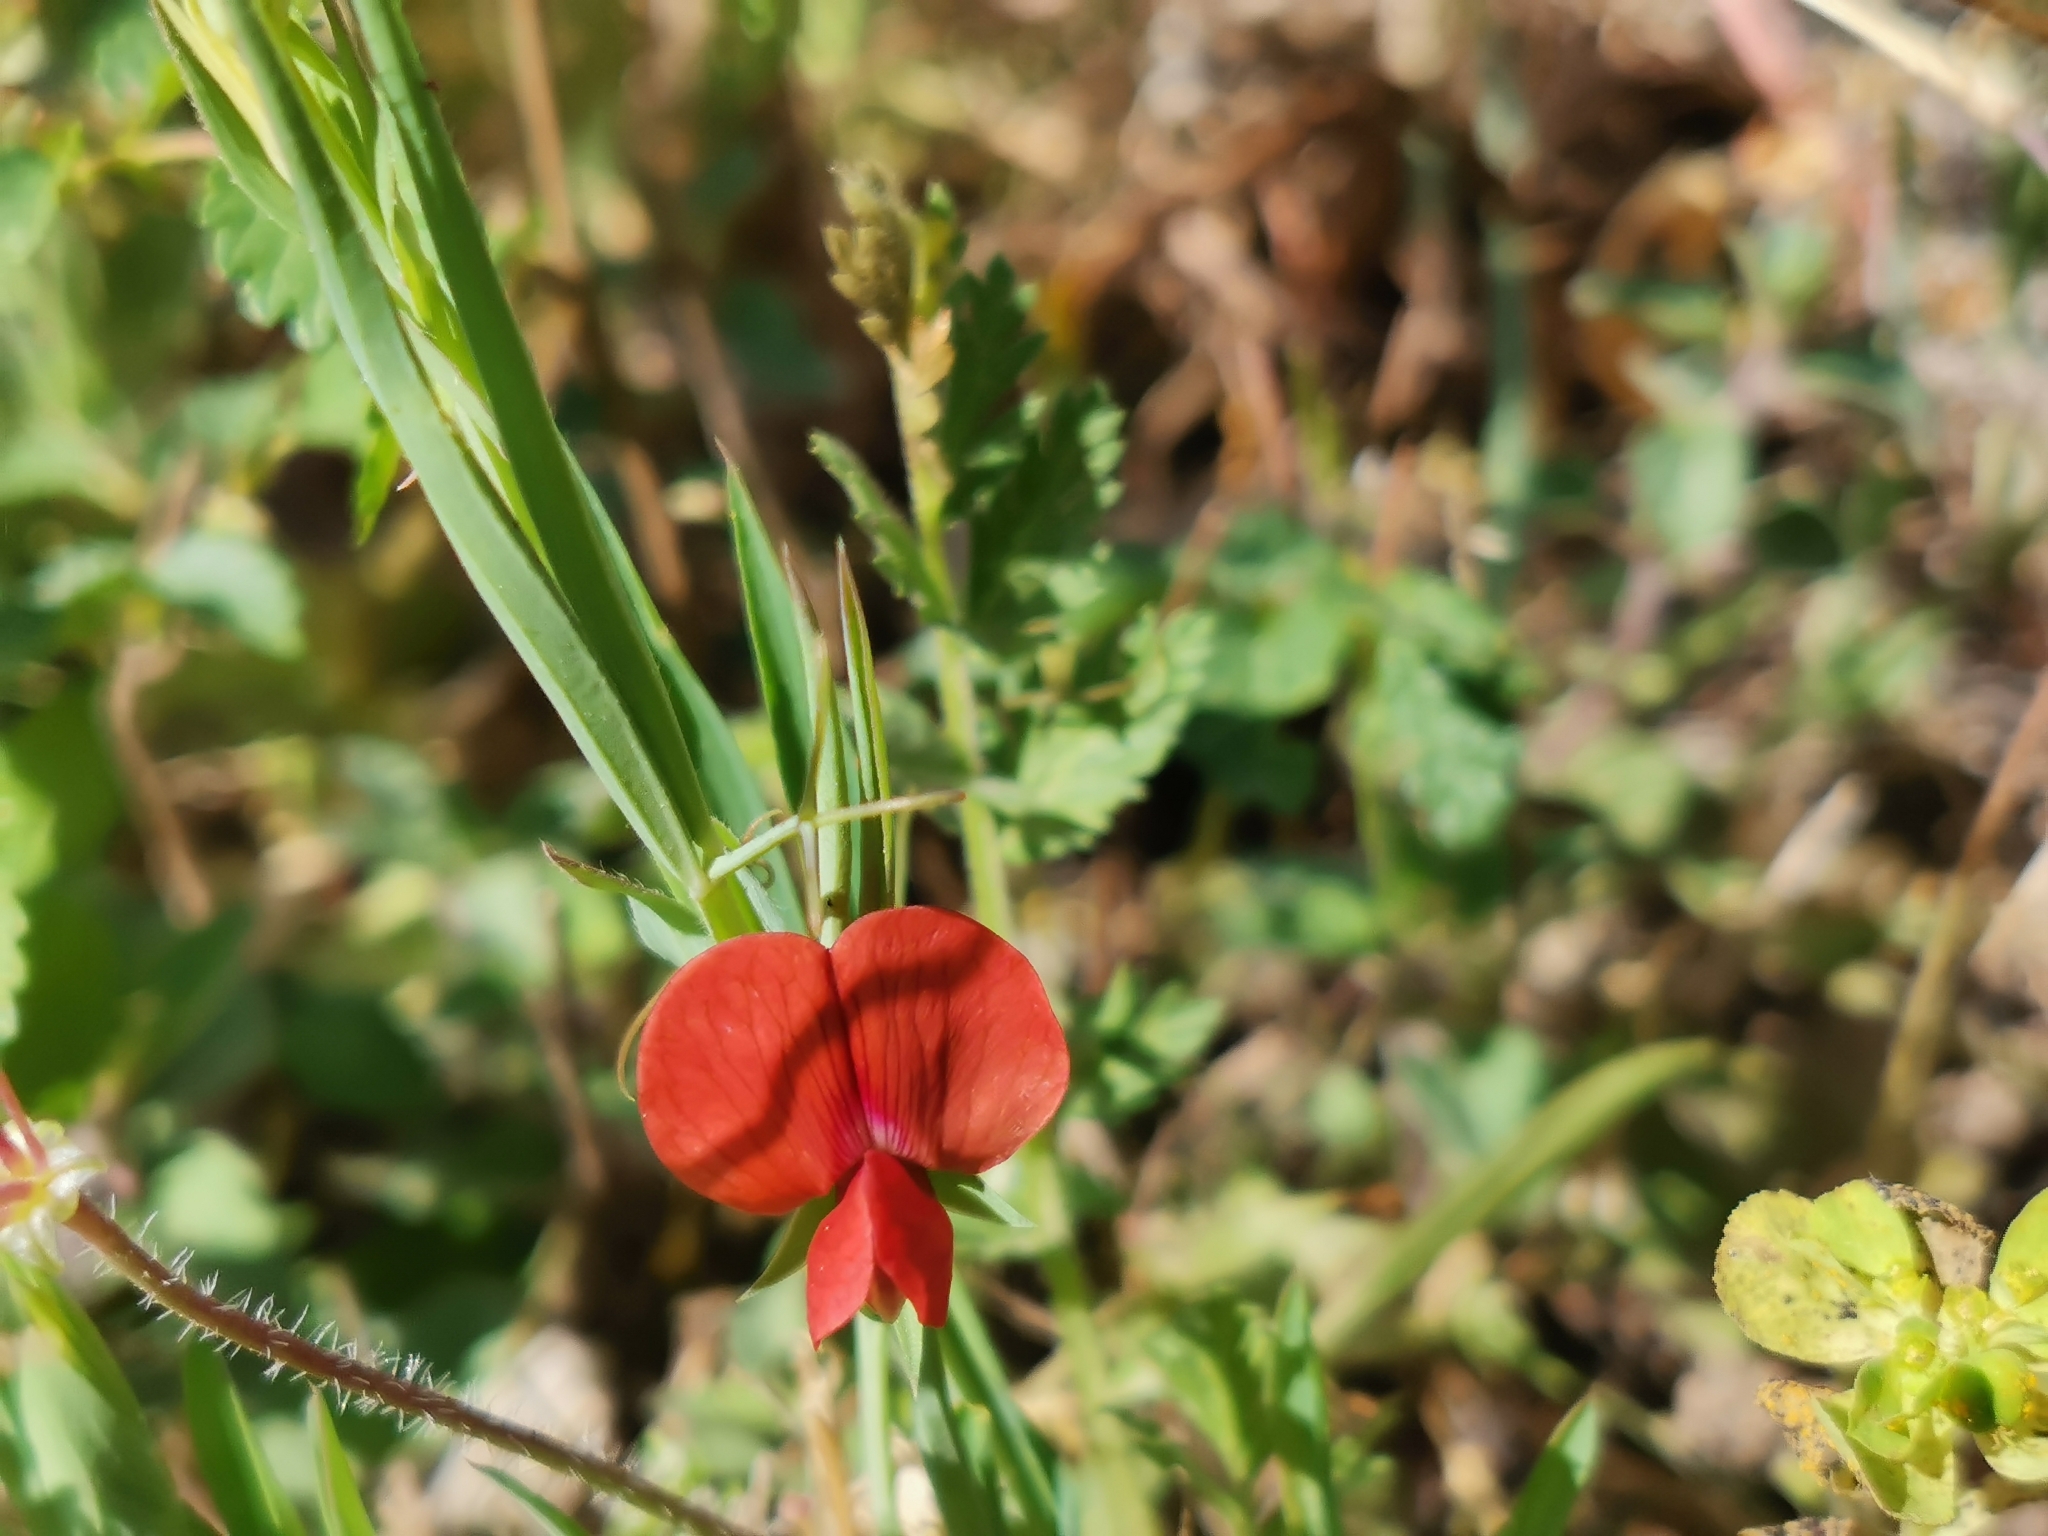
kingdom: Plantae
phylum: Tracheophyta
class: Magnoliopsida
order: Fabales
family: Fabaceae
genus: Lathyrus
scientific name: Lathyrus cicera
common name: Red vetchling
